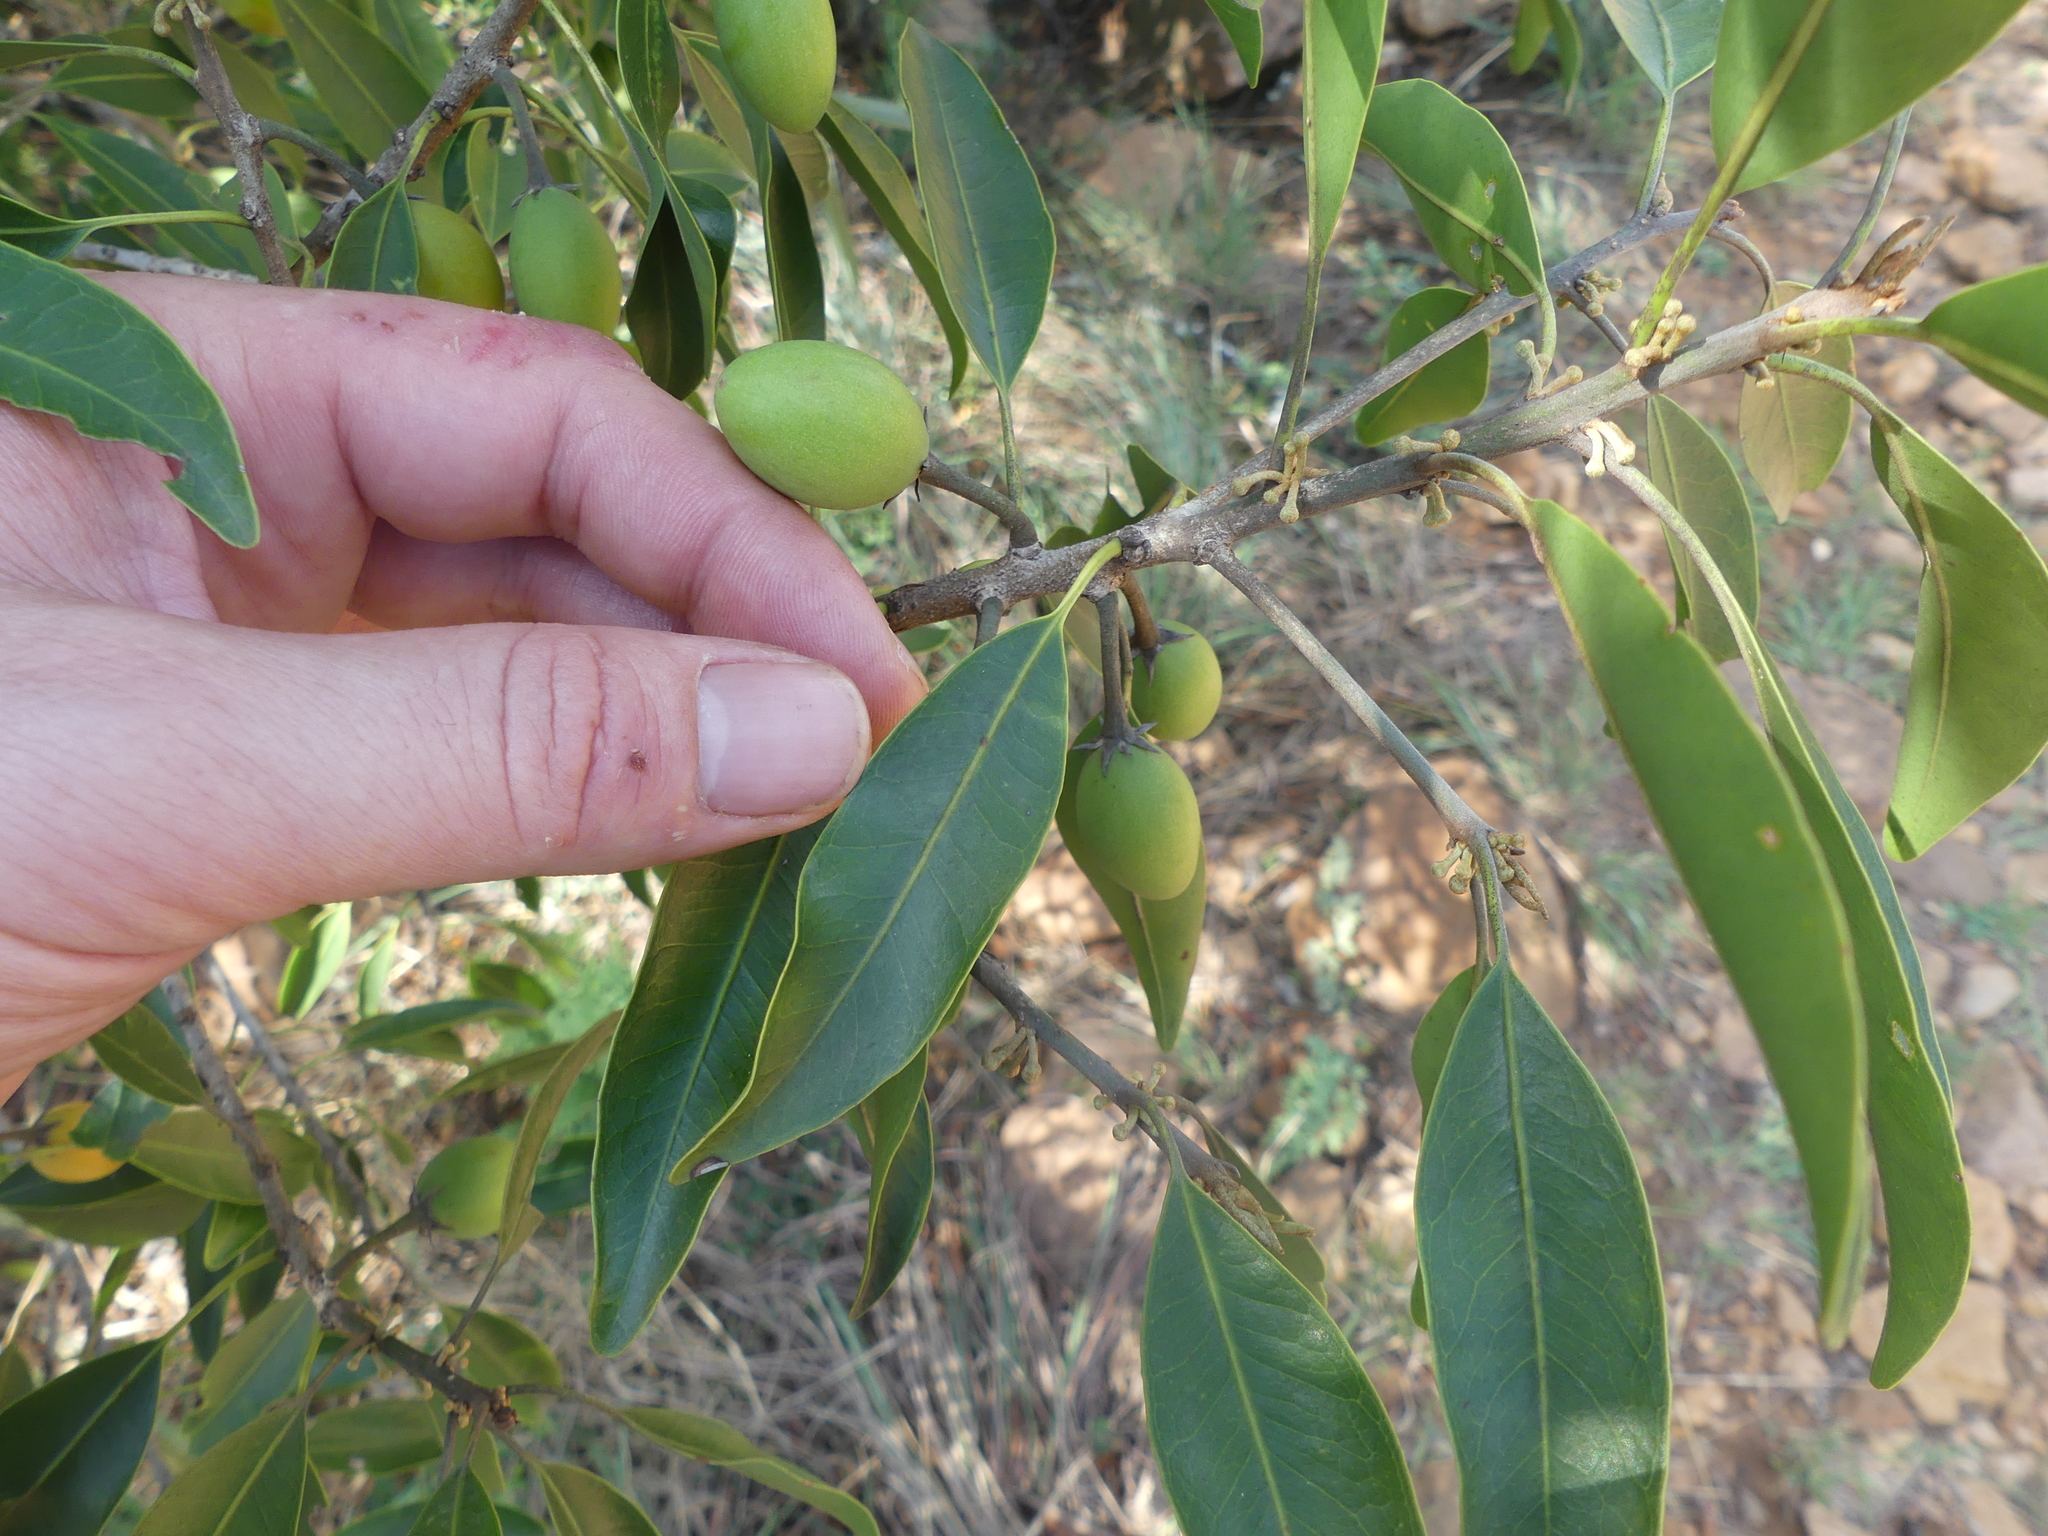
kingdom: Plantae
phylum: Tracheophyta
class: Magnoliopsida
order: Ericales
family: Sapotaceae
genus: Mimusops
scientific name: Mimusops zeyheri
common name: Transvaal red milkwood
